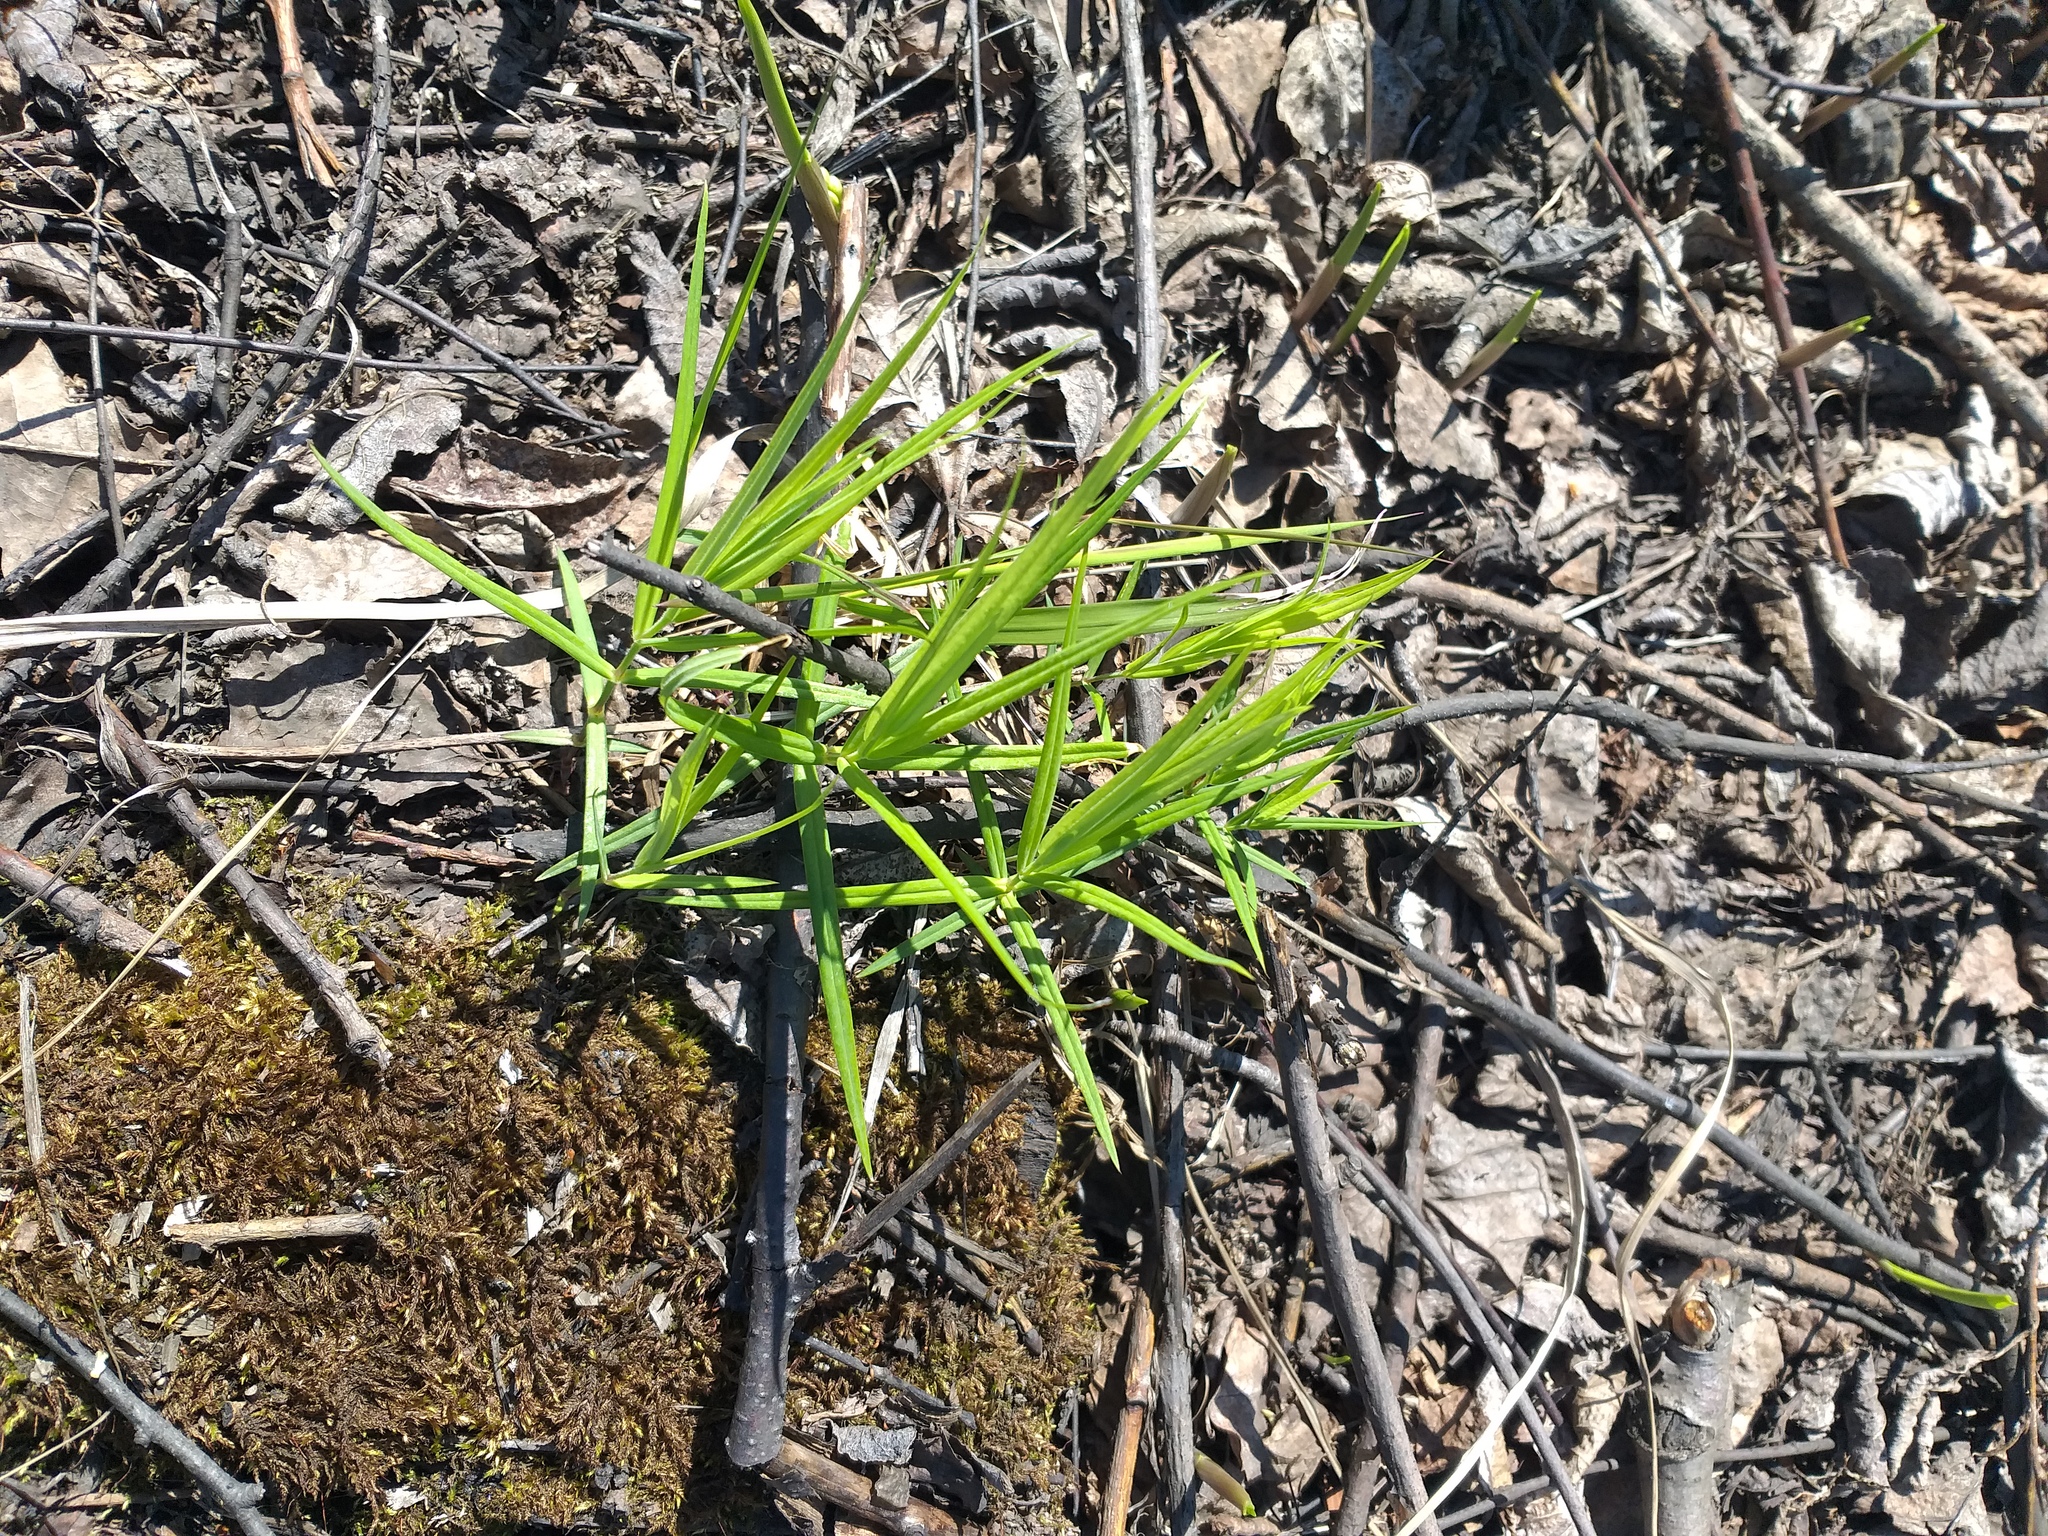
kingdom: Plantae
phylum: Tracheophyta
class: Magnoliopsida
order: Caryophyllales
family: Caryophyllaceae
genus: Rabelera
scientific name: Rabelera holostea
